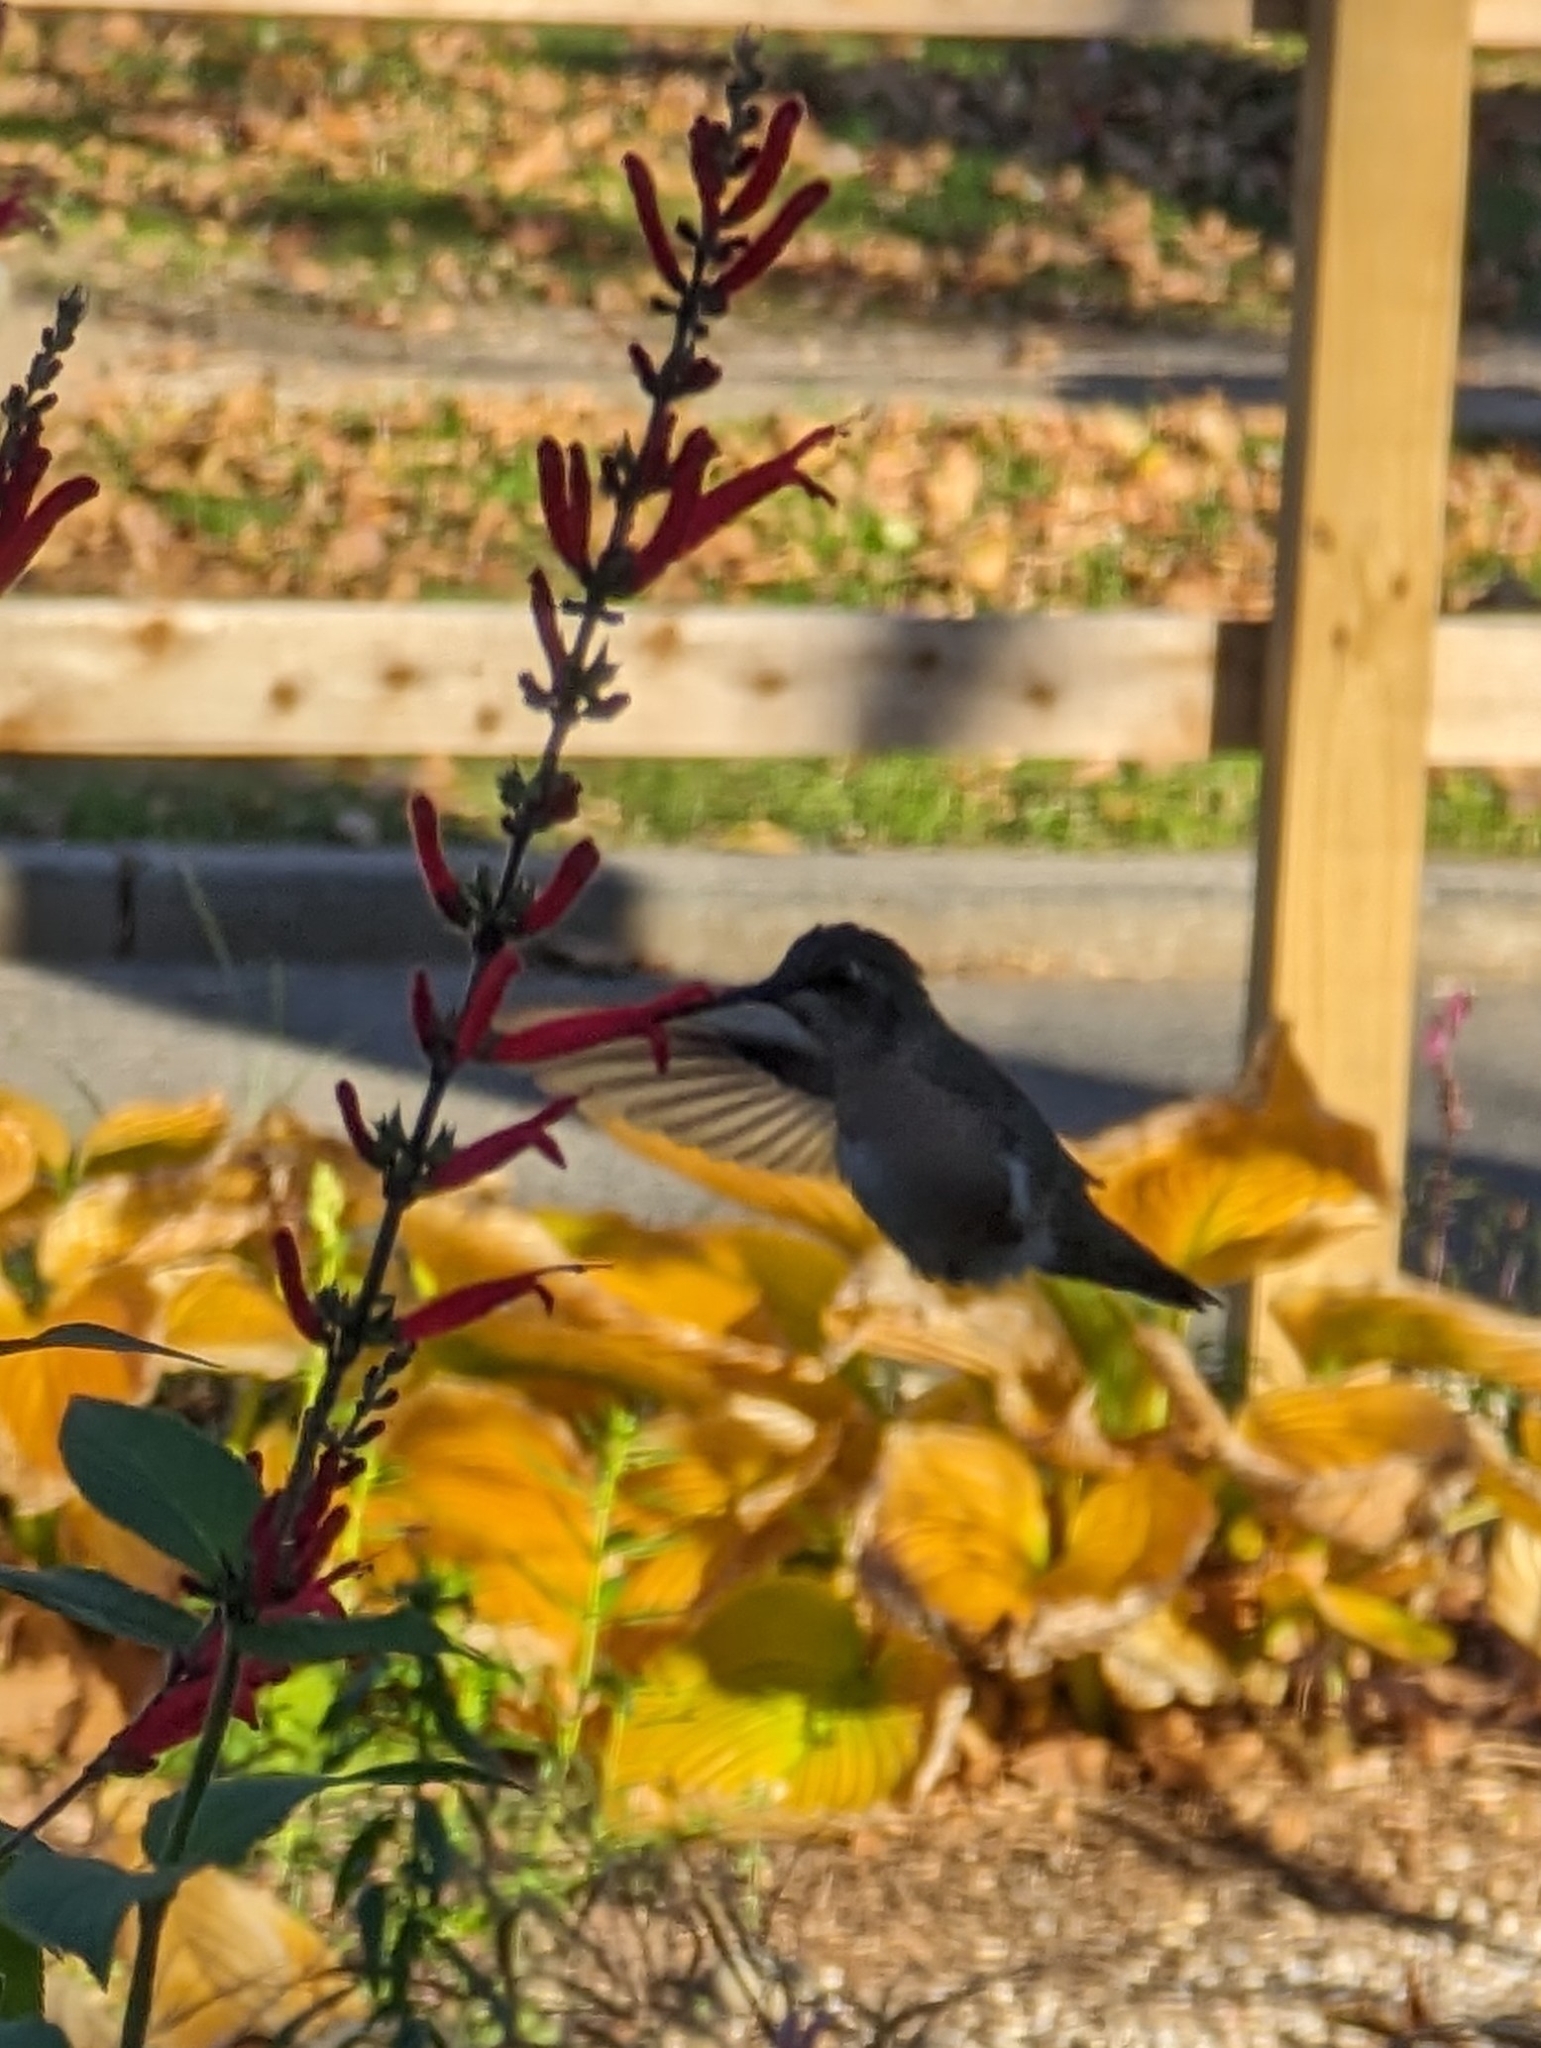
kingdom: Animalia
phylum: Chordata
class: Aves
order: Apodiformes
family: Trochilidae
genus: Archilochus
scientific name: Archilochus alexandri
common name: Black-chinned hummingbird
